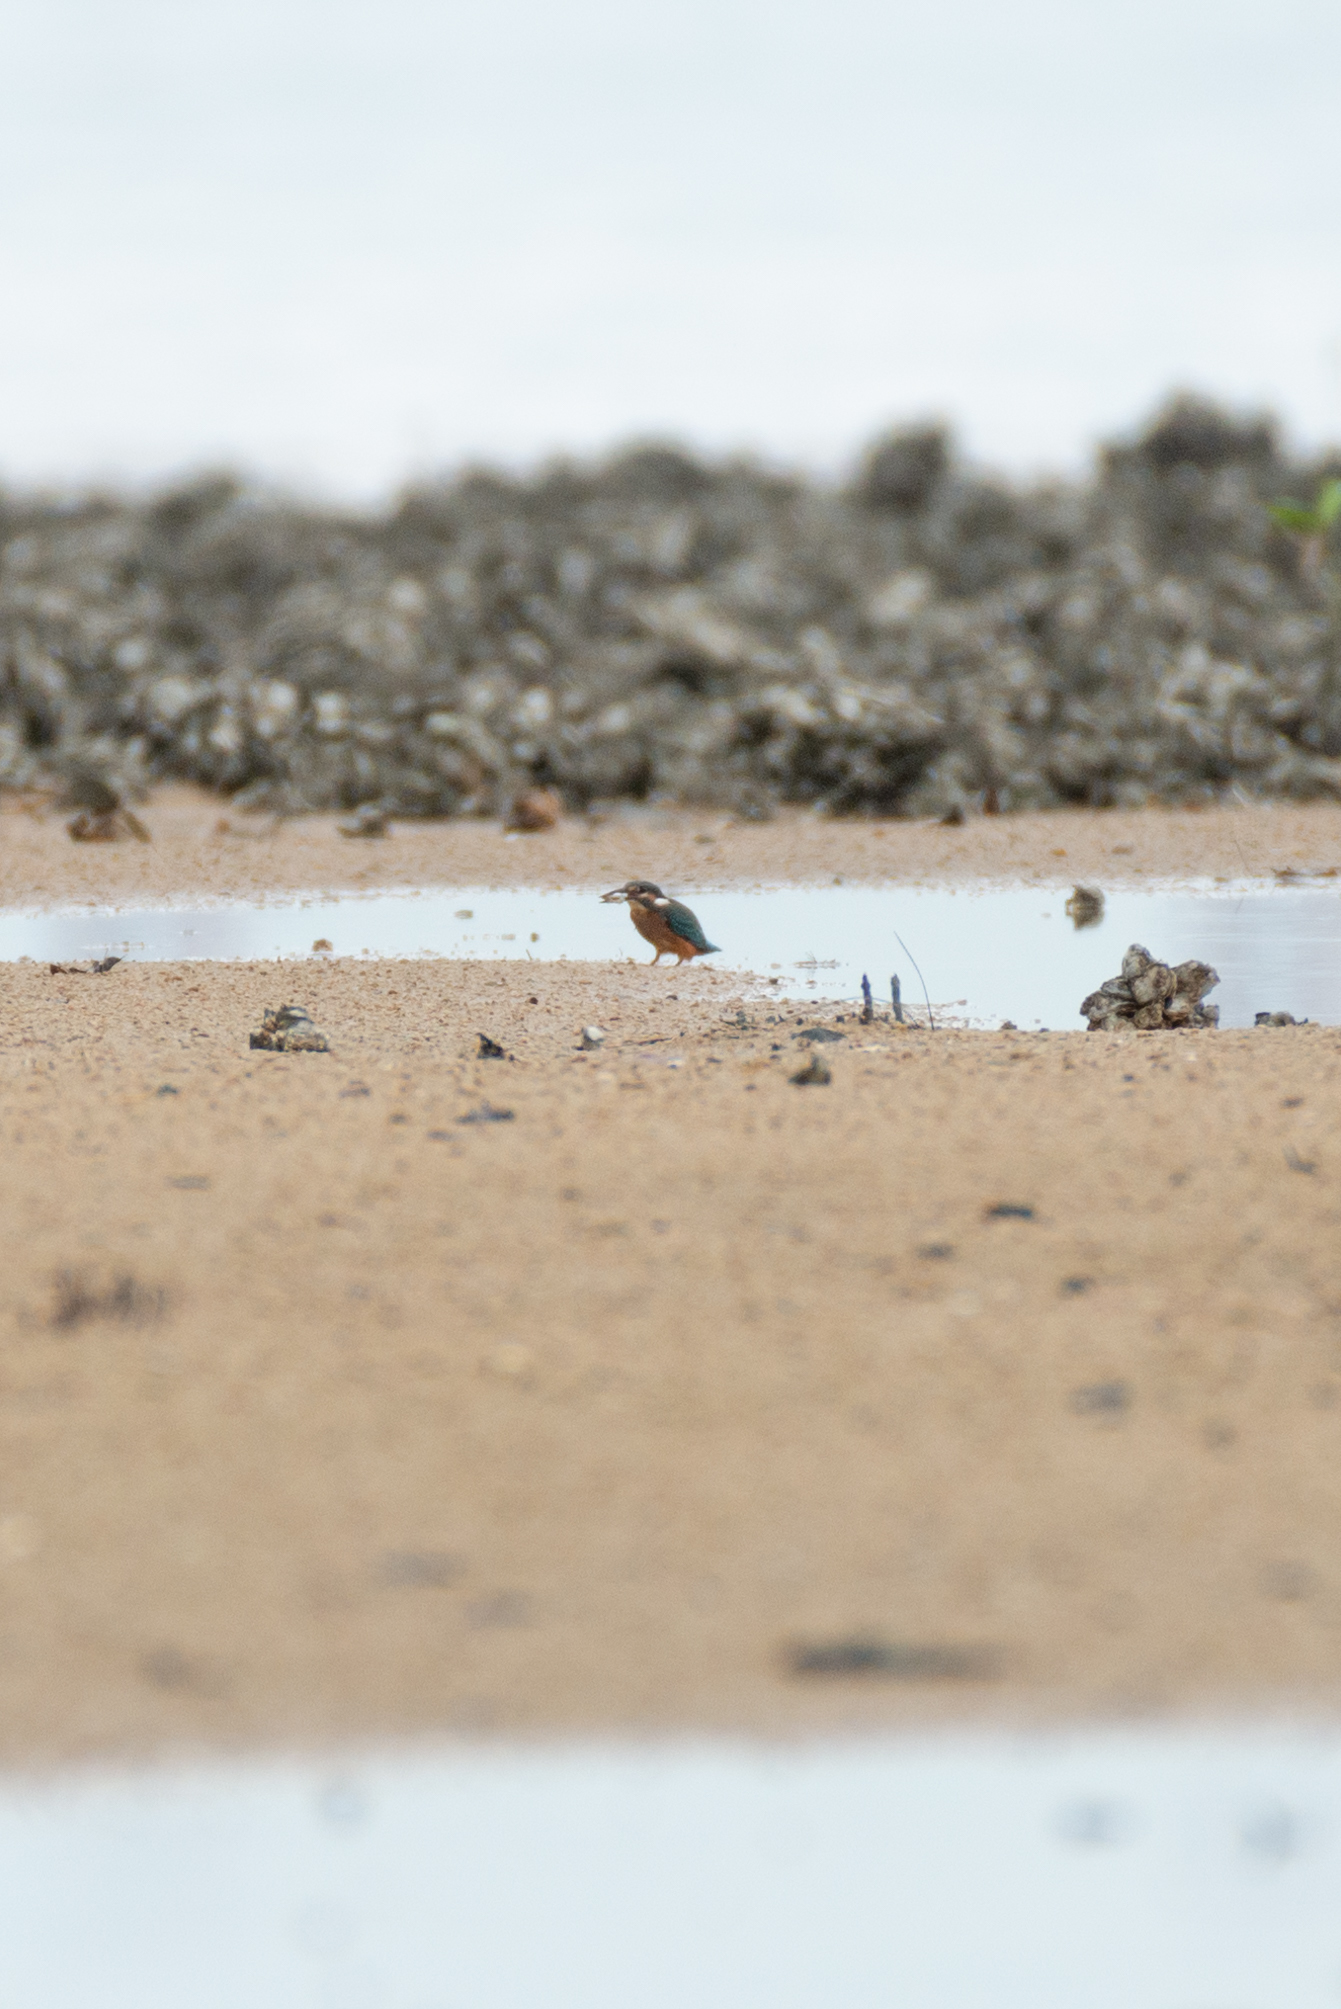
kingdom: Animalia
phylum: Chordata
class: Aves
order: Coraciiformes
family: Alcedinidae
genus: Alcedo
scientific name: Alcedo atthis
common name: Common kingfisher
